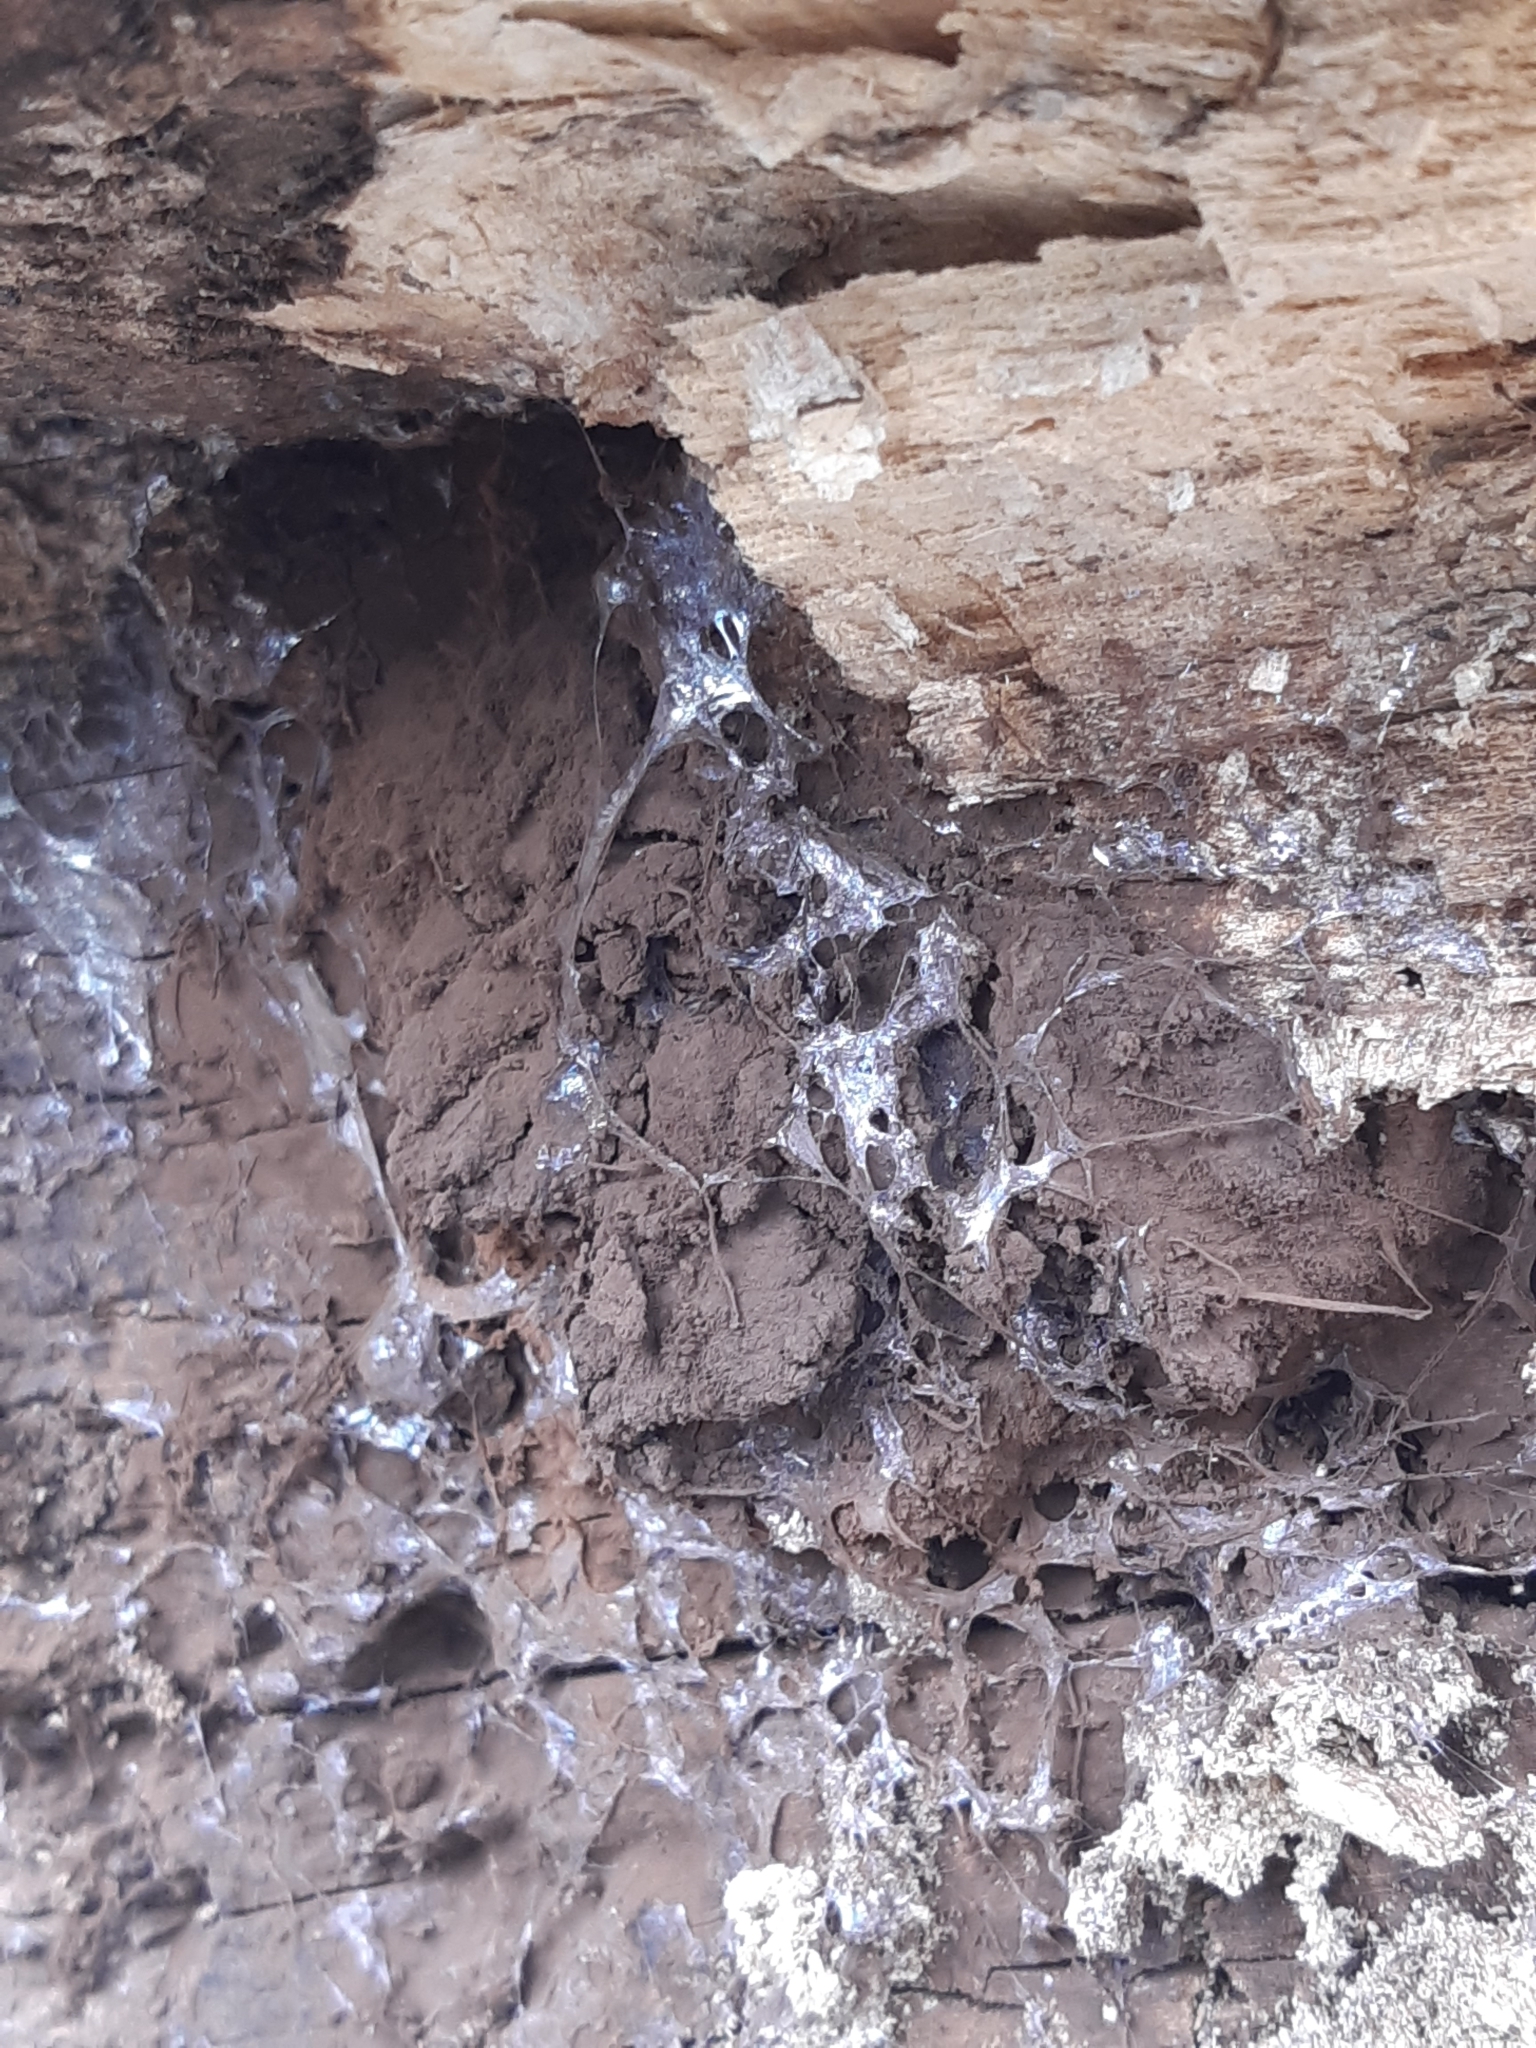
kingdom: Protozoa
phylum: Mycetozoa
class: Myxomycetes
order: Cribrariales
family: Tubiferaceae
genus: Reticularia
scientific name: Reticularia lycoperdon
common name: False puffball
